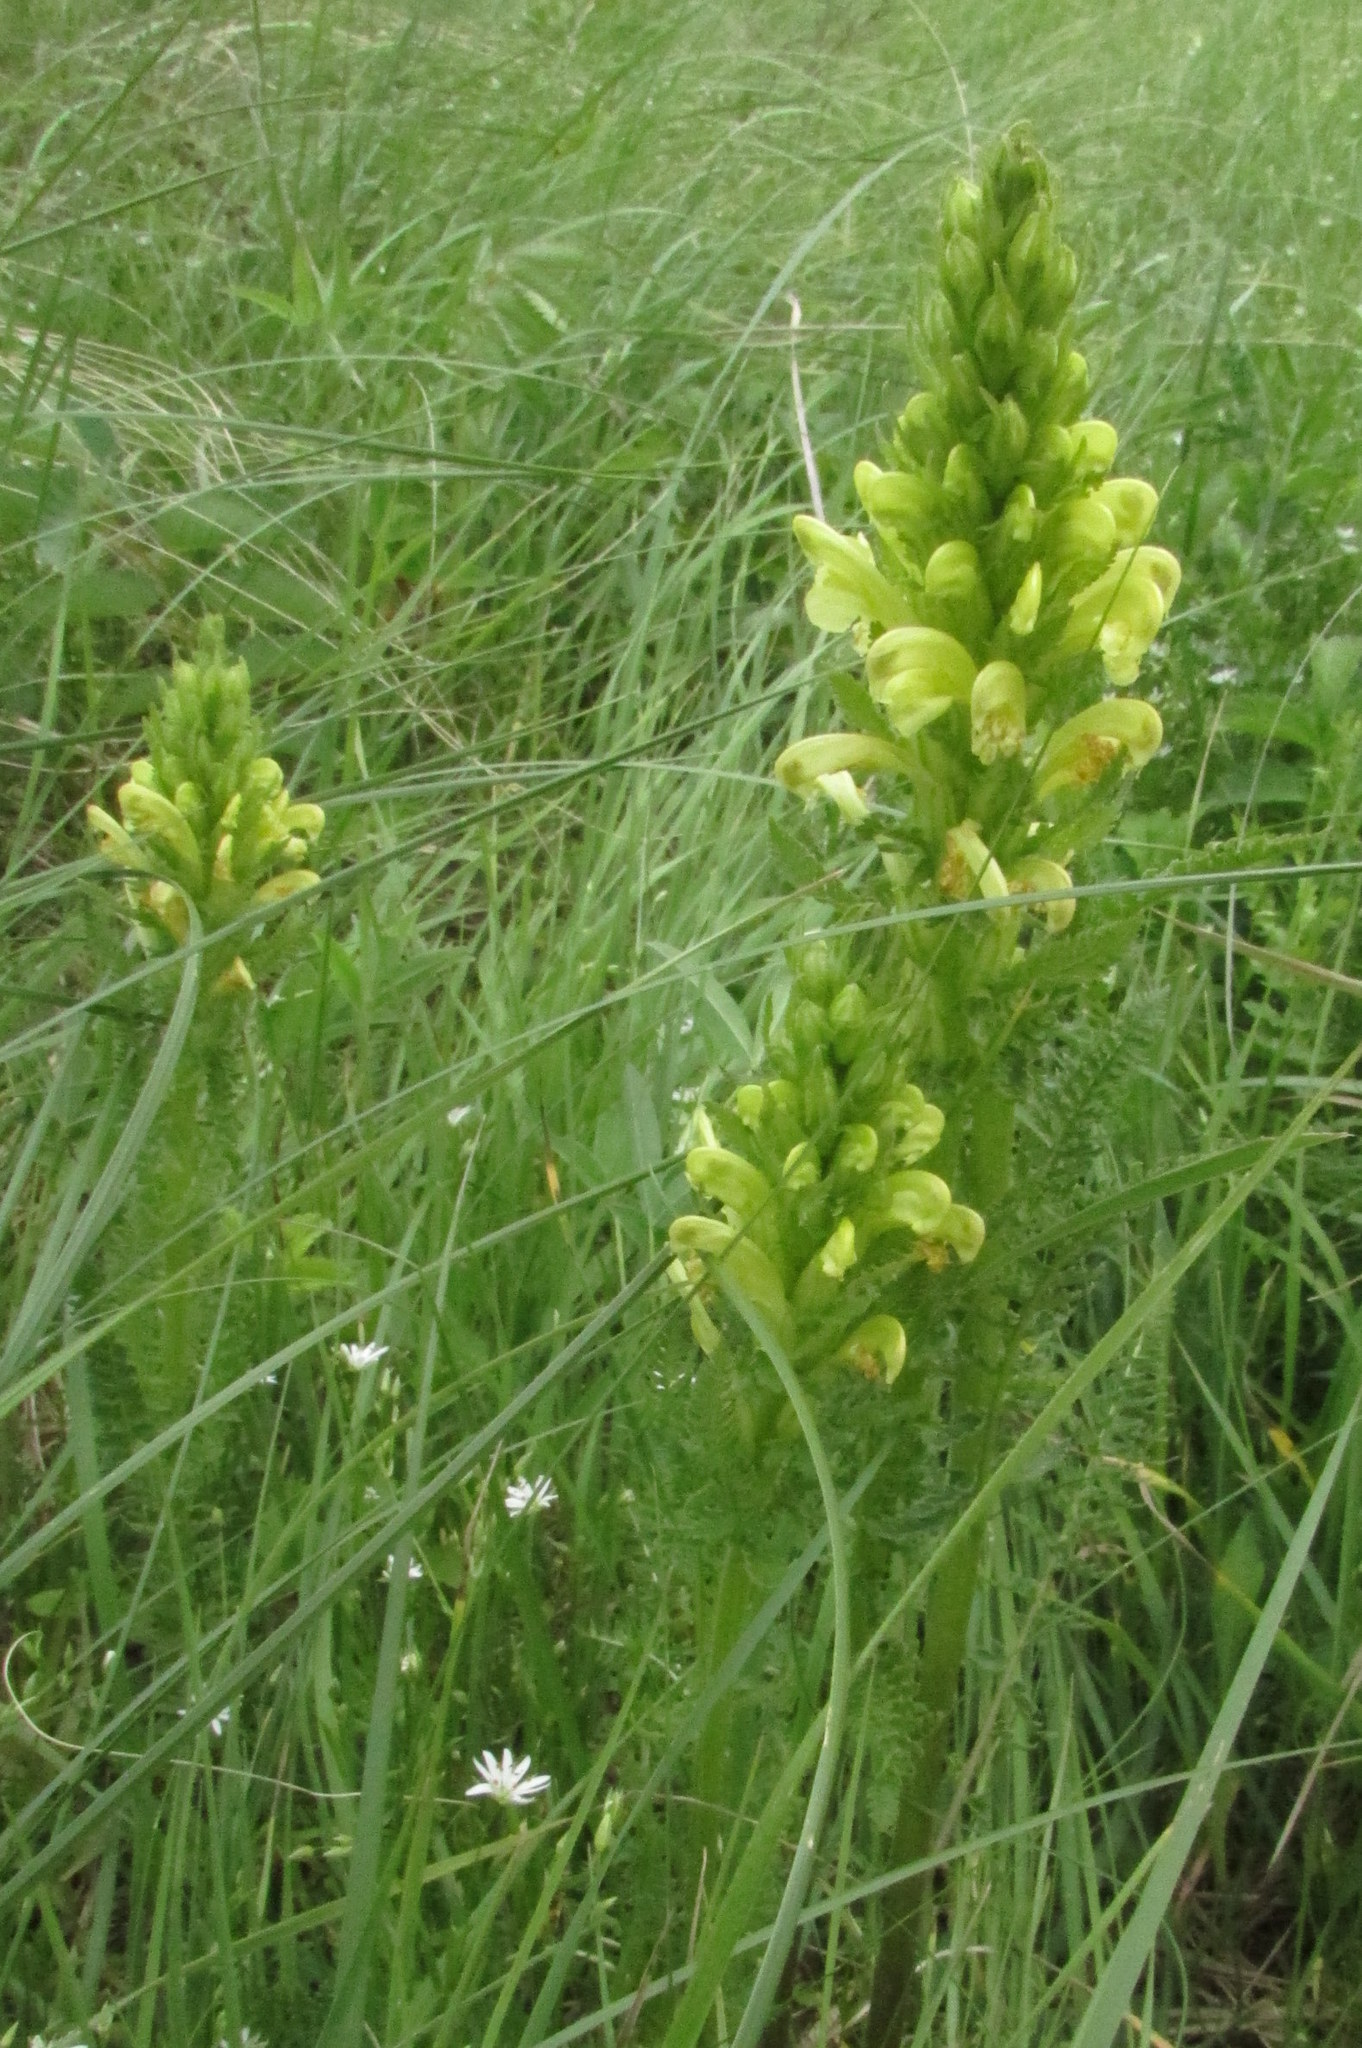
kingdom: Plantae
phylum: Tracheophyta
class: Magnoliopsida
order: Lamiales
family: Orobanchaceae
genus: Pedicularis
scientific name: Pedicularis kaufmannii
